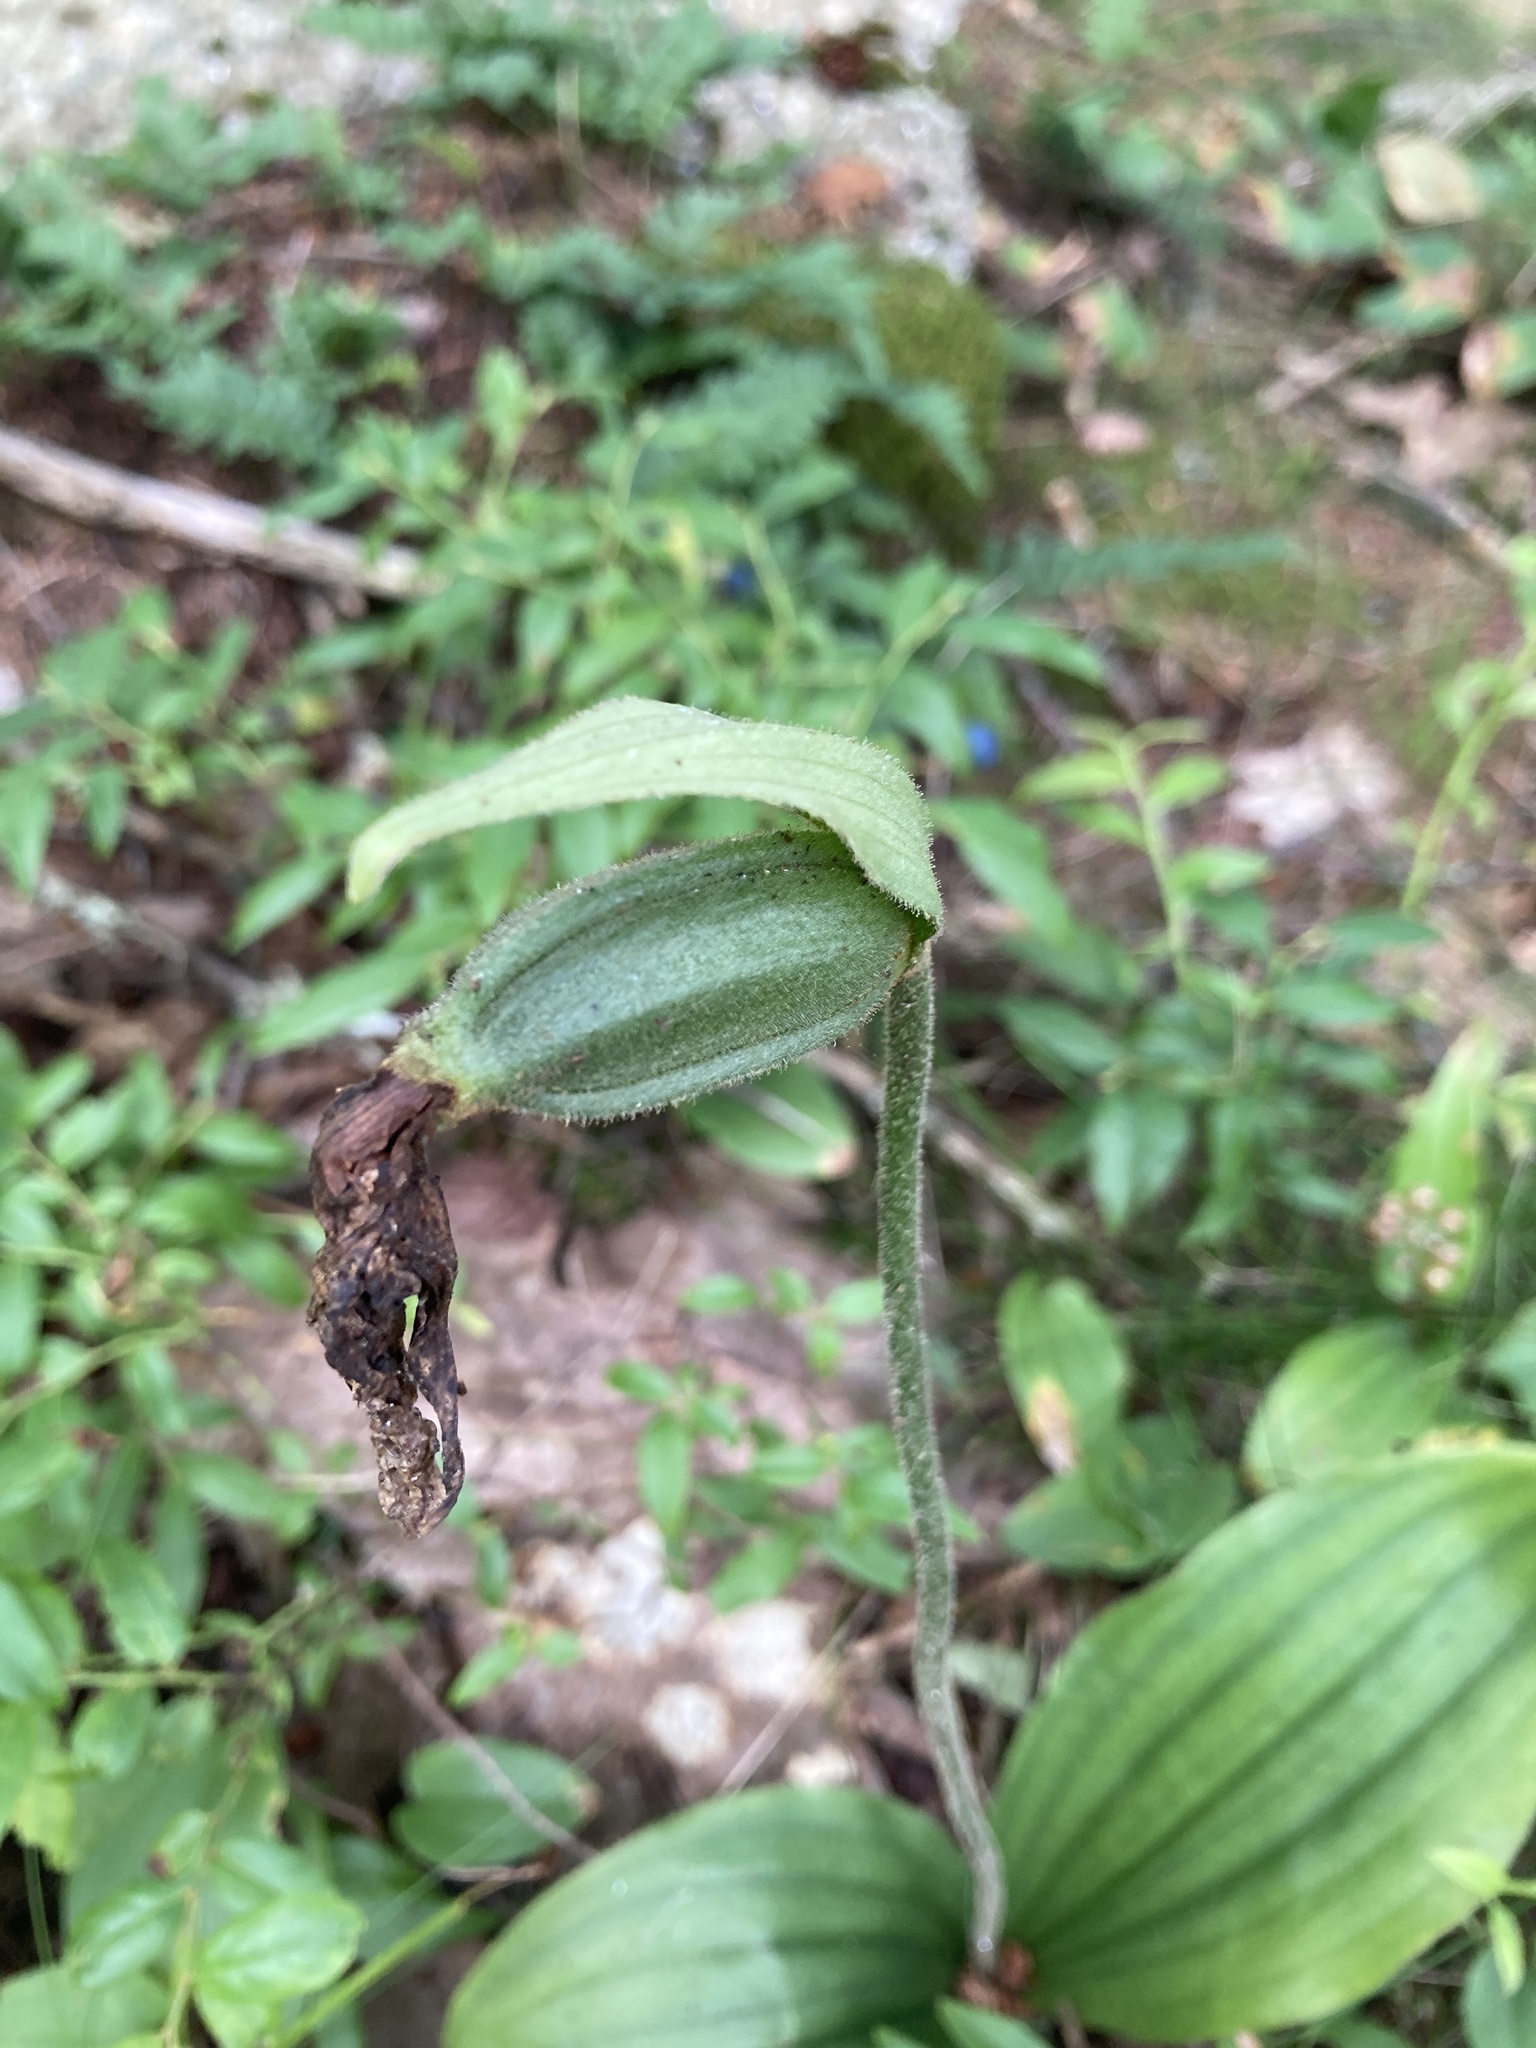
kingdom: Plantae
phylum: Tracheophyta
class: Liliopsida
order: Asparagales
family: Orchidaceae
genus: Cypripedium
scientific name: Cypripedium acaule
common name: Pink lady's-slipper
